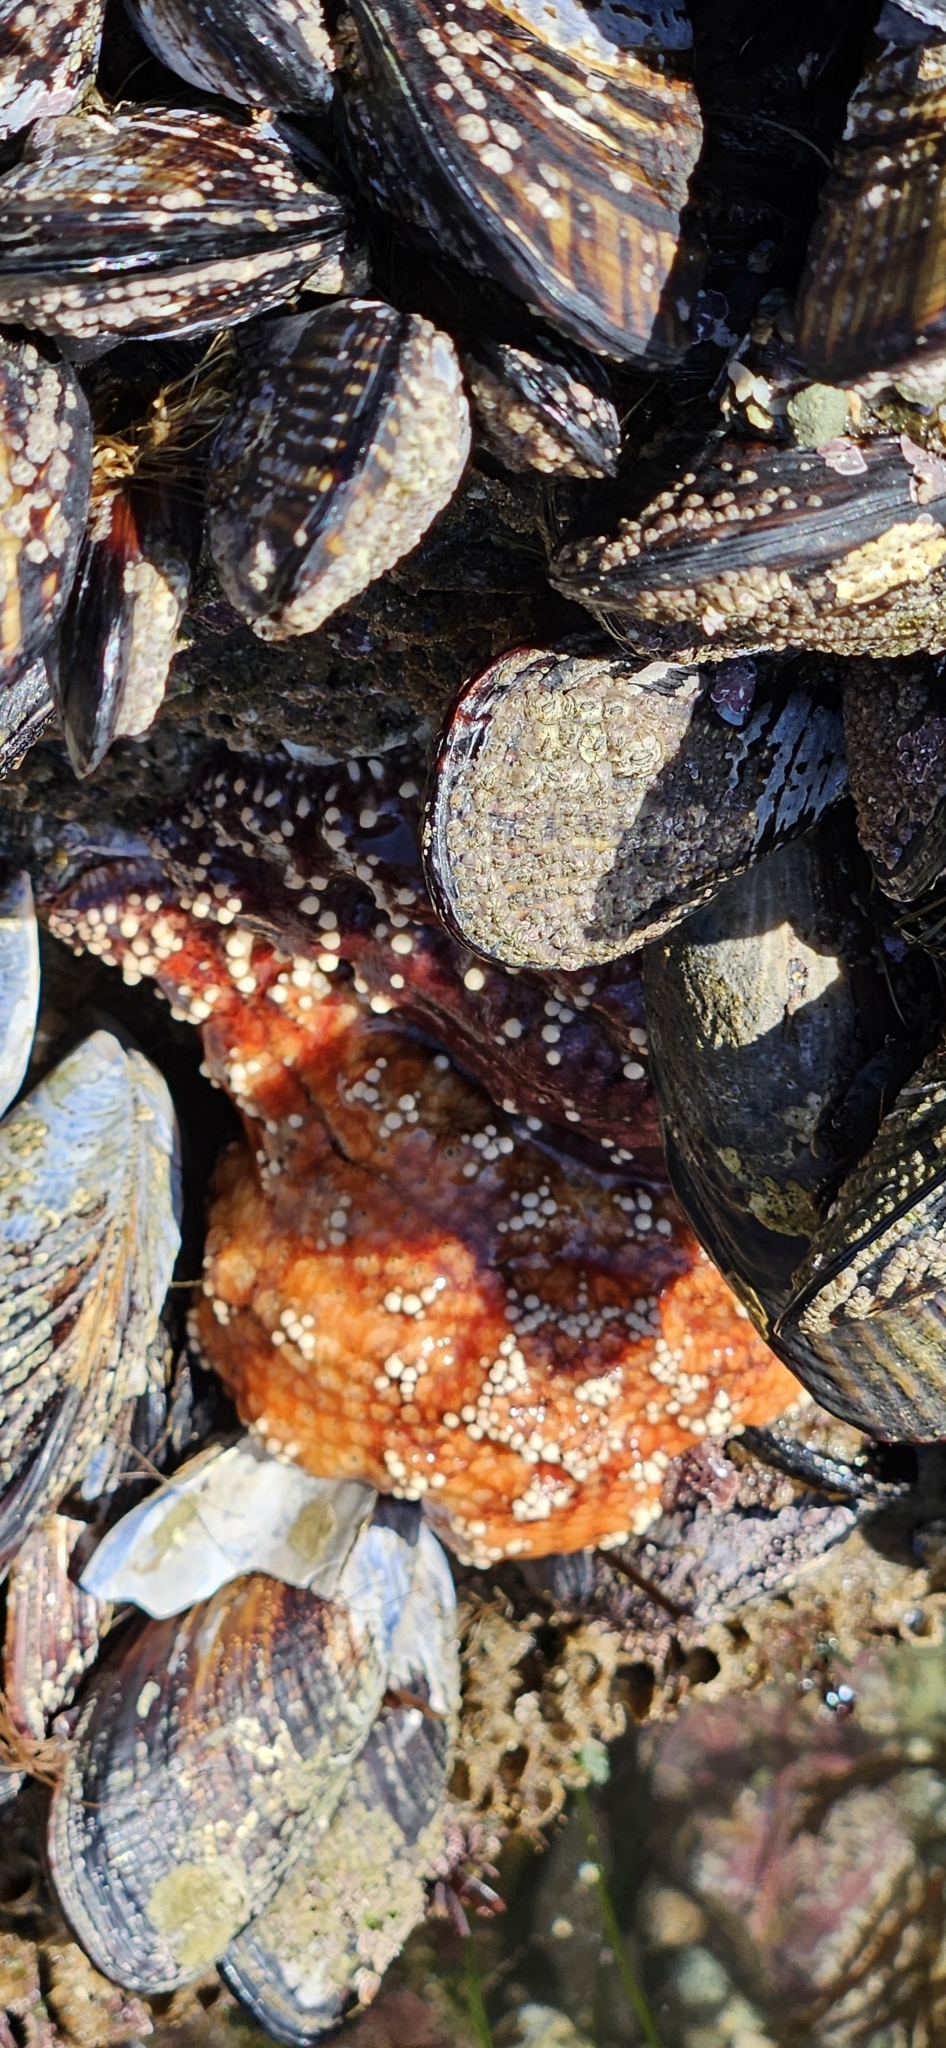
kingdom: Animalia
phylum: Echinodermata
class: Asteroidea
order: Forcipulatida
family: Asteriidae
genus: Pisaster
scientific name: Pisaster ochraceus
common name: Ochre stars
